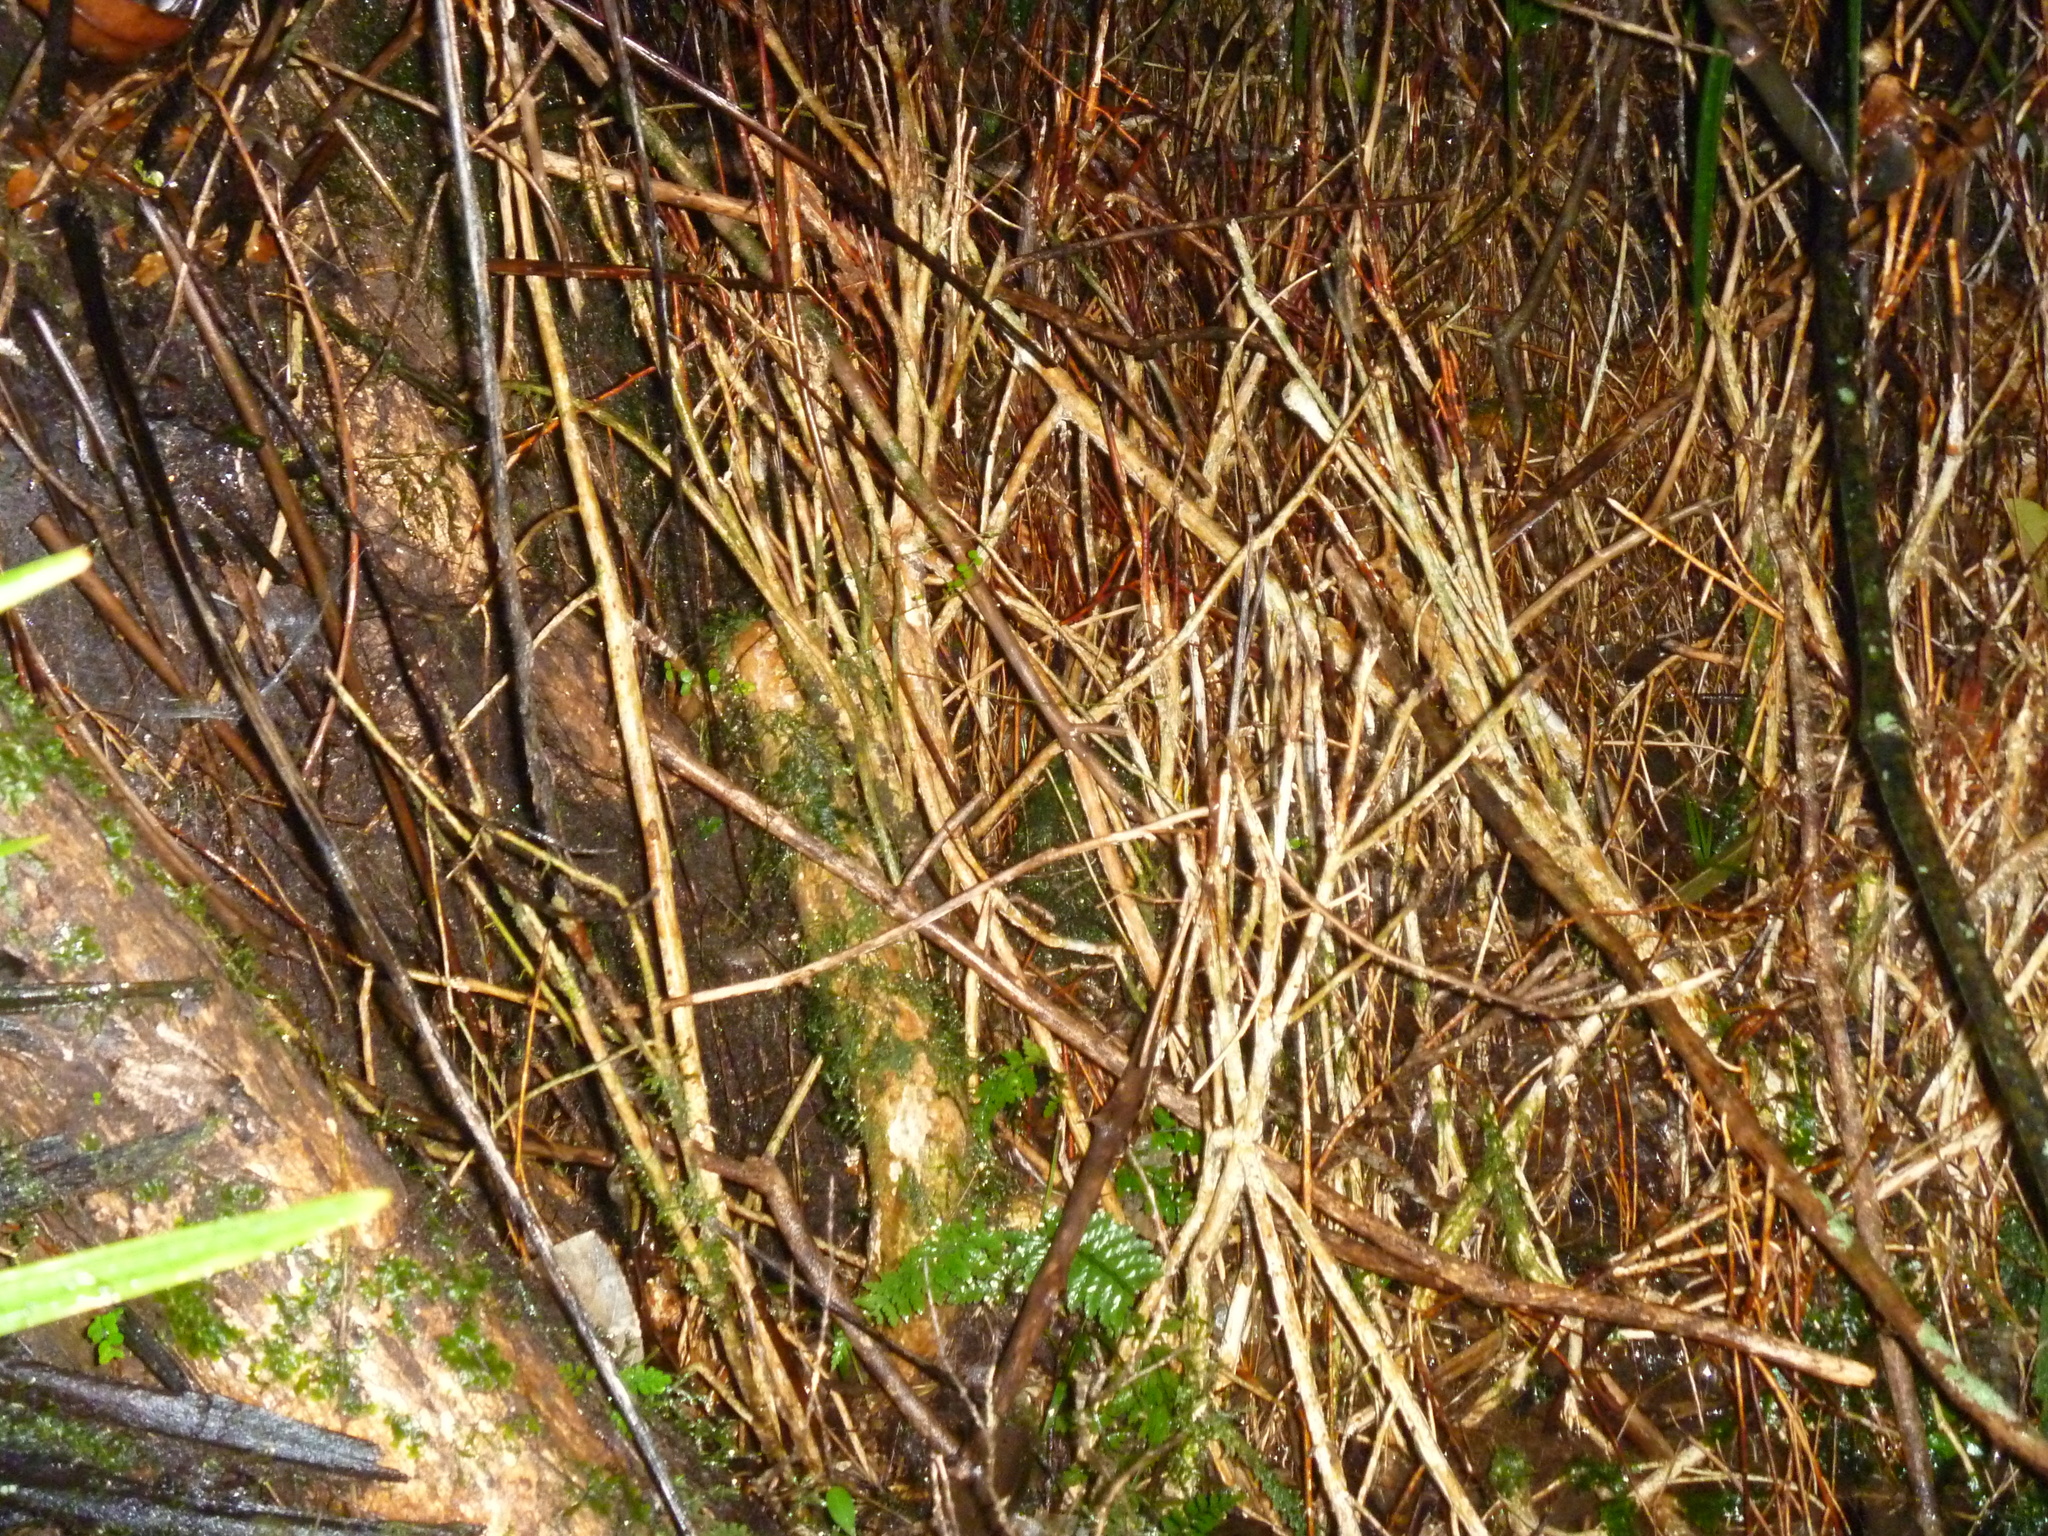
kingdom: Plantae
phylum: Tracheophyta
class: Magnoliopsida
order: Myrtales
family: Myrtaceae
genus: Syzygium
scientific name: Syzygium maire
